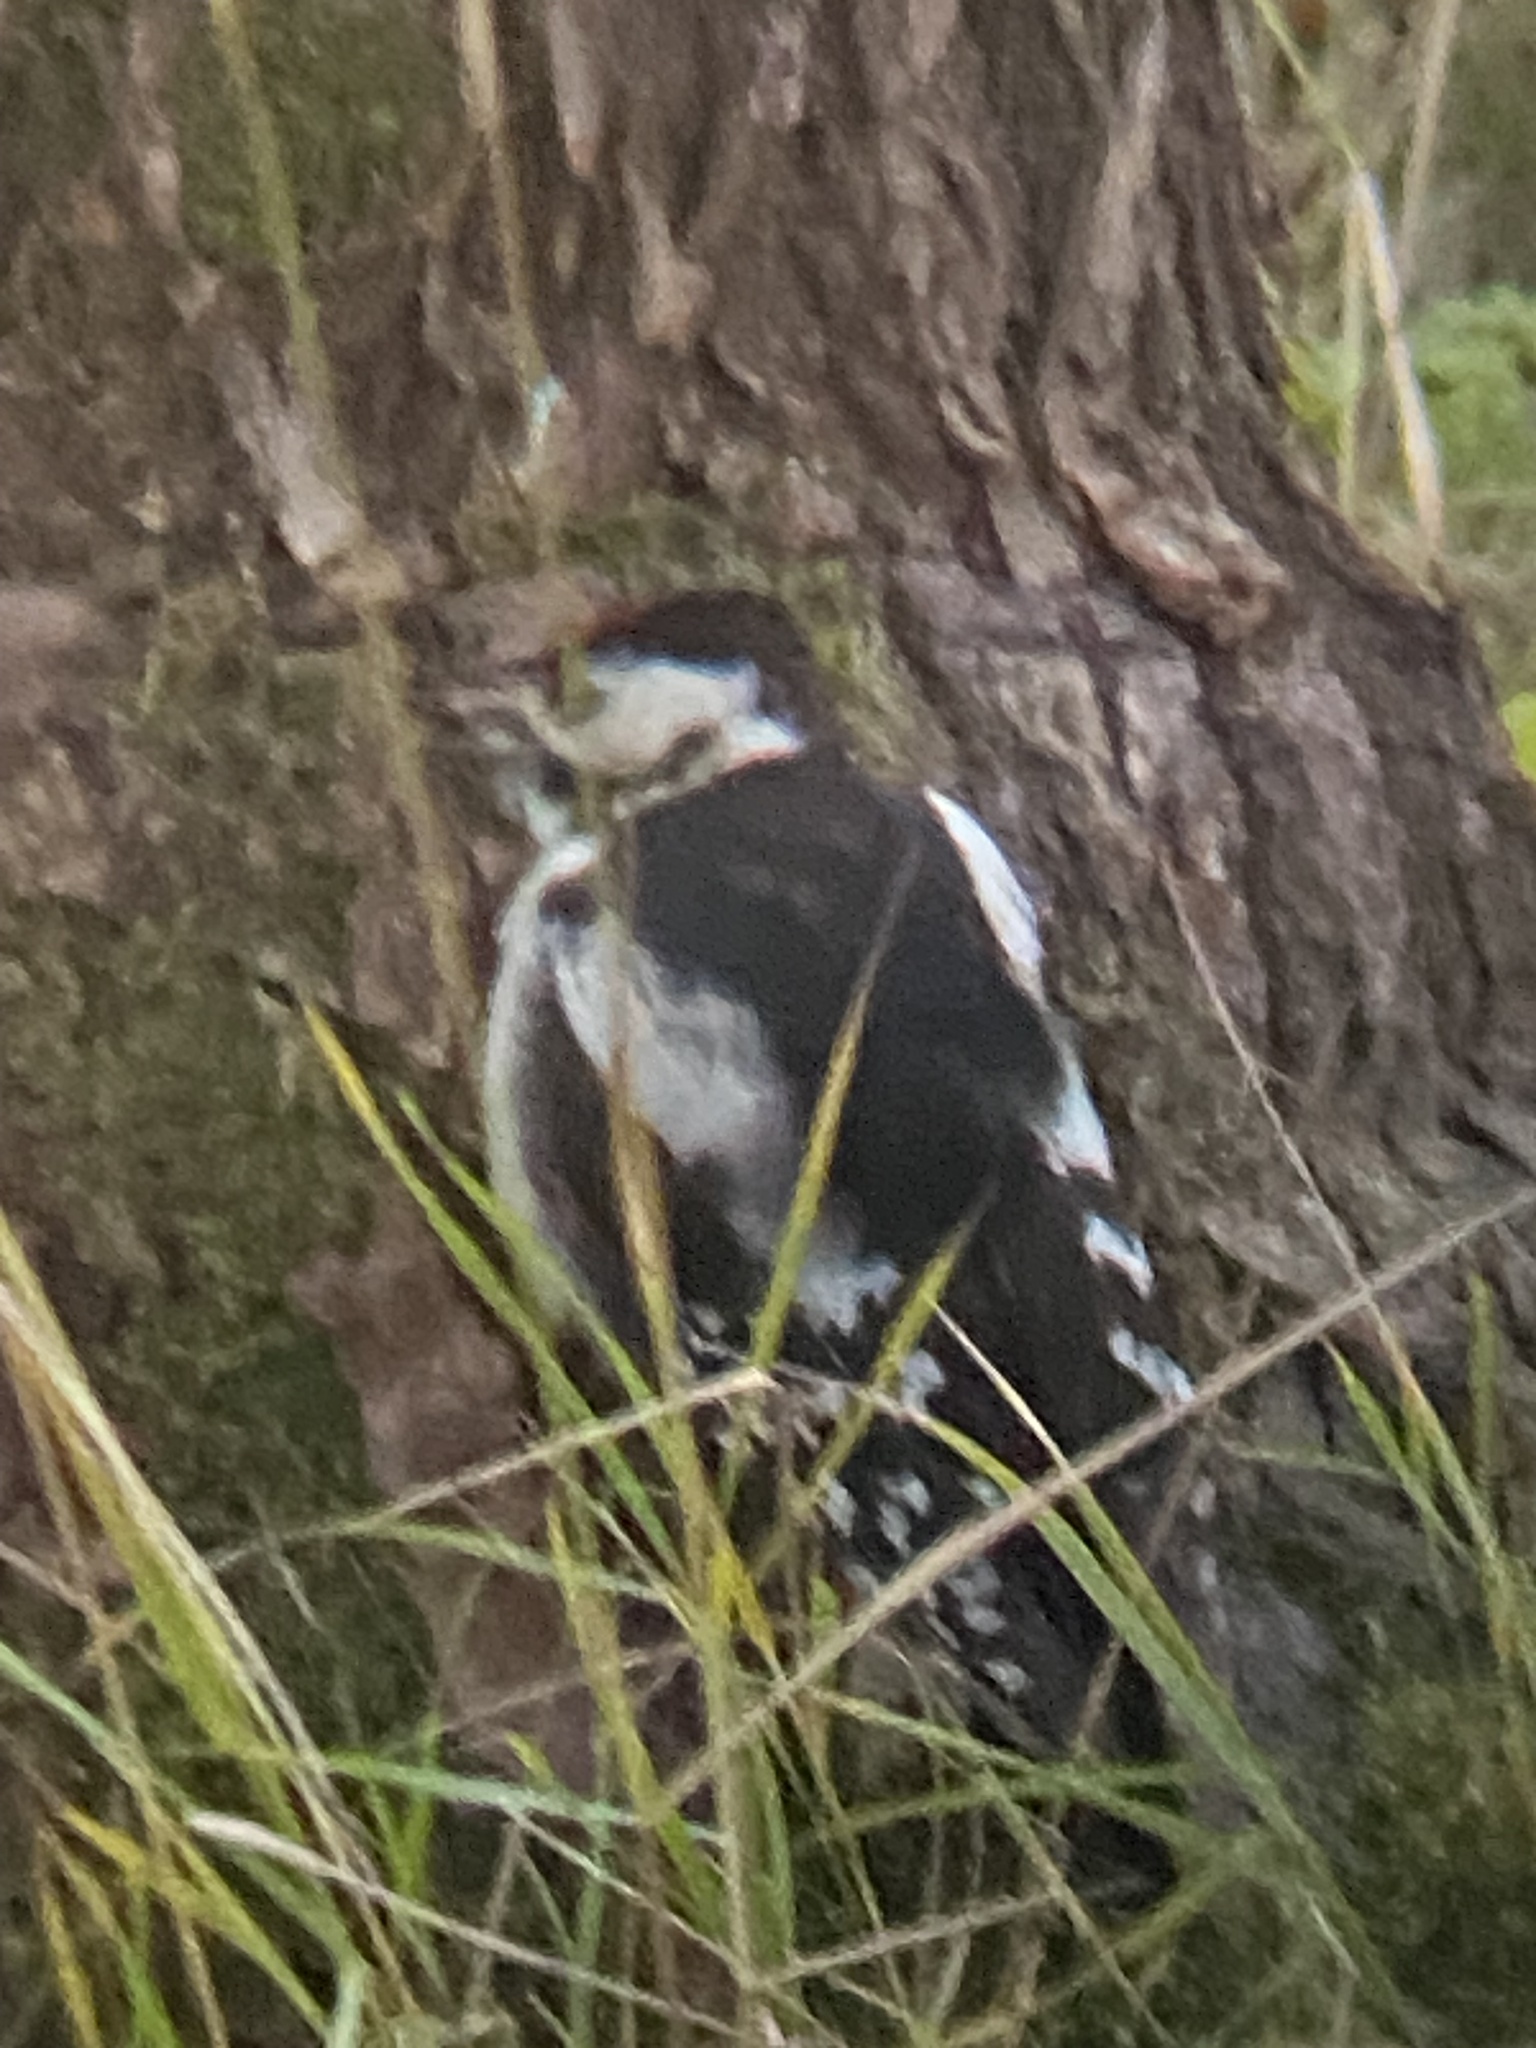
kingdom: Animalia
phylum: Chordata
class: Aves
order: Piciformes
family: Picidae
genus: Dendrocopos
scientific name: Dendrocopos major
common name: Great spotted woodpecker
